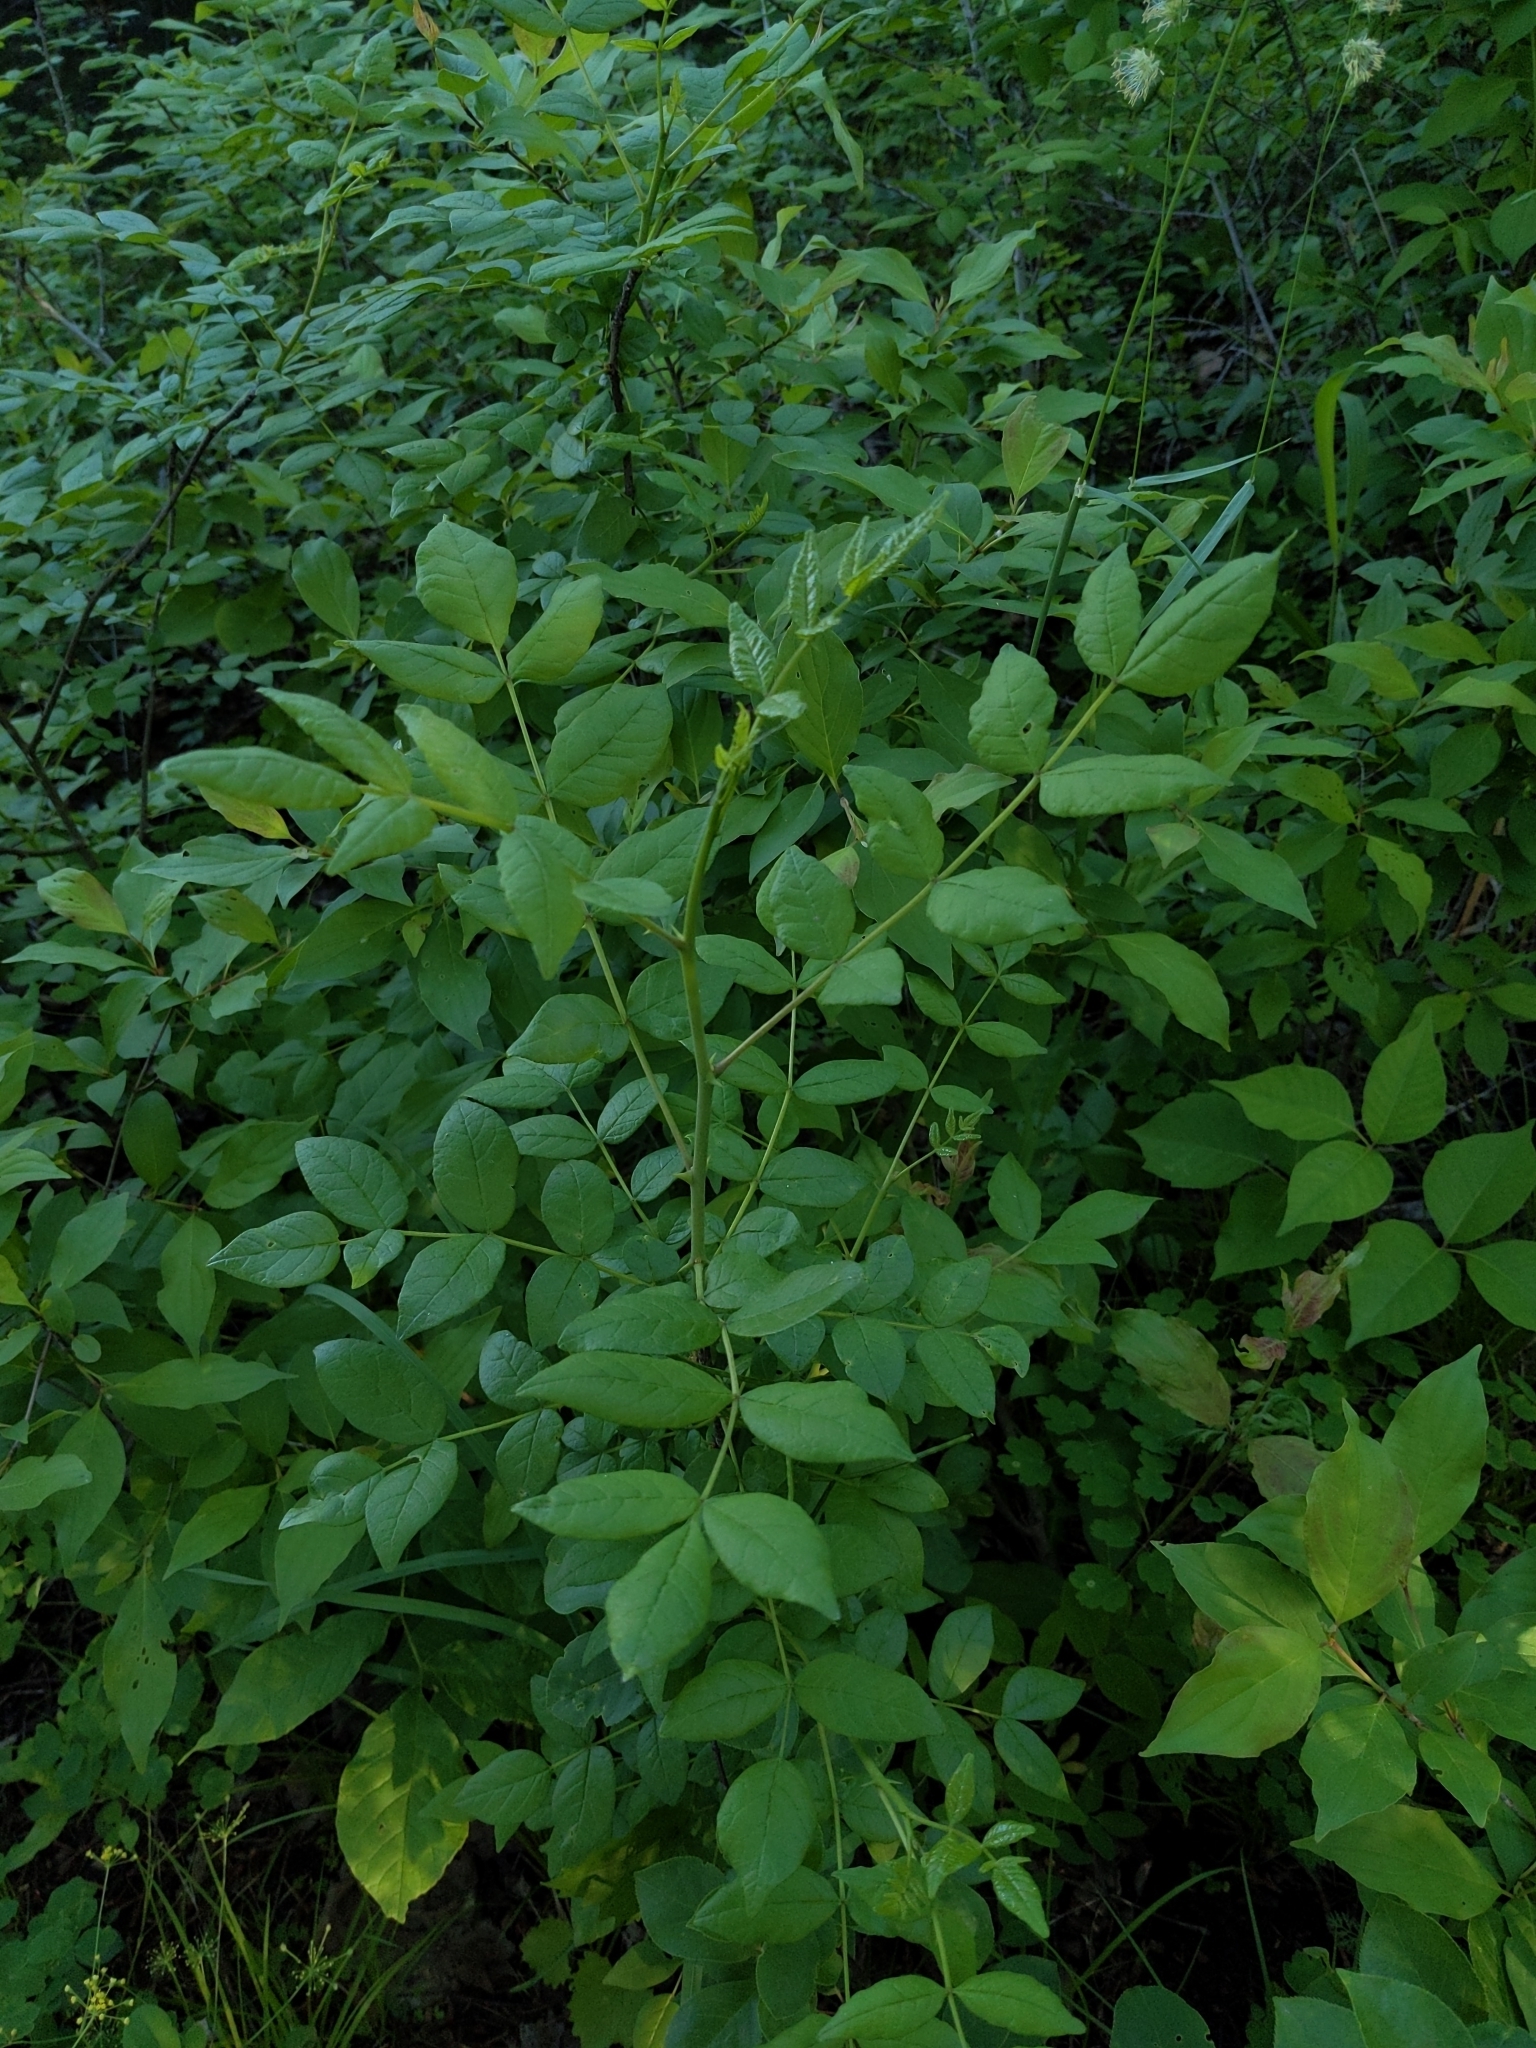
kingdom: Plantae
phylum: Tracheophyta
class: Magnoliopsida
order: Sapindales
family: Rutaceae
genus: Zanthoxylum
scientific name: Zanthoxylum americanum
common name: Northern prickly-ash
